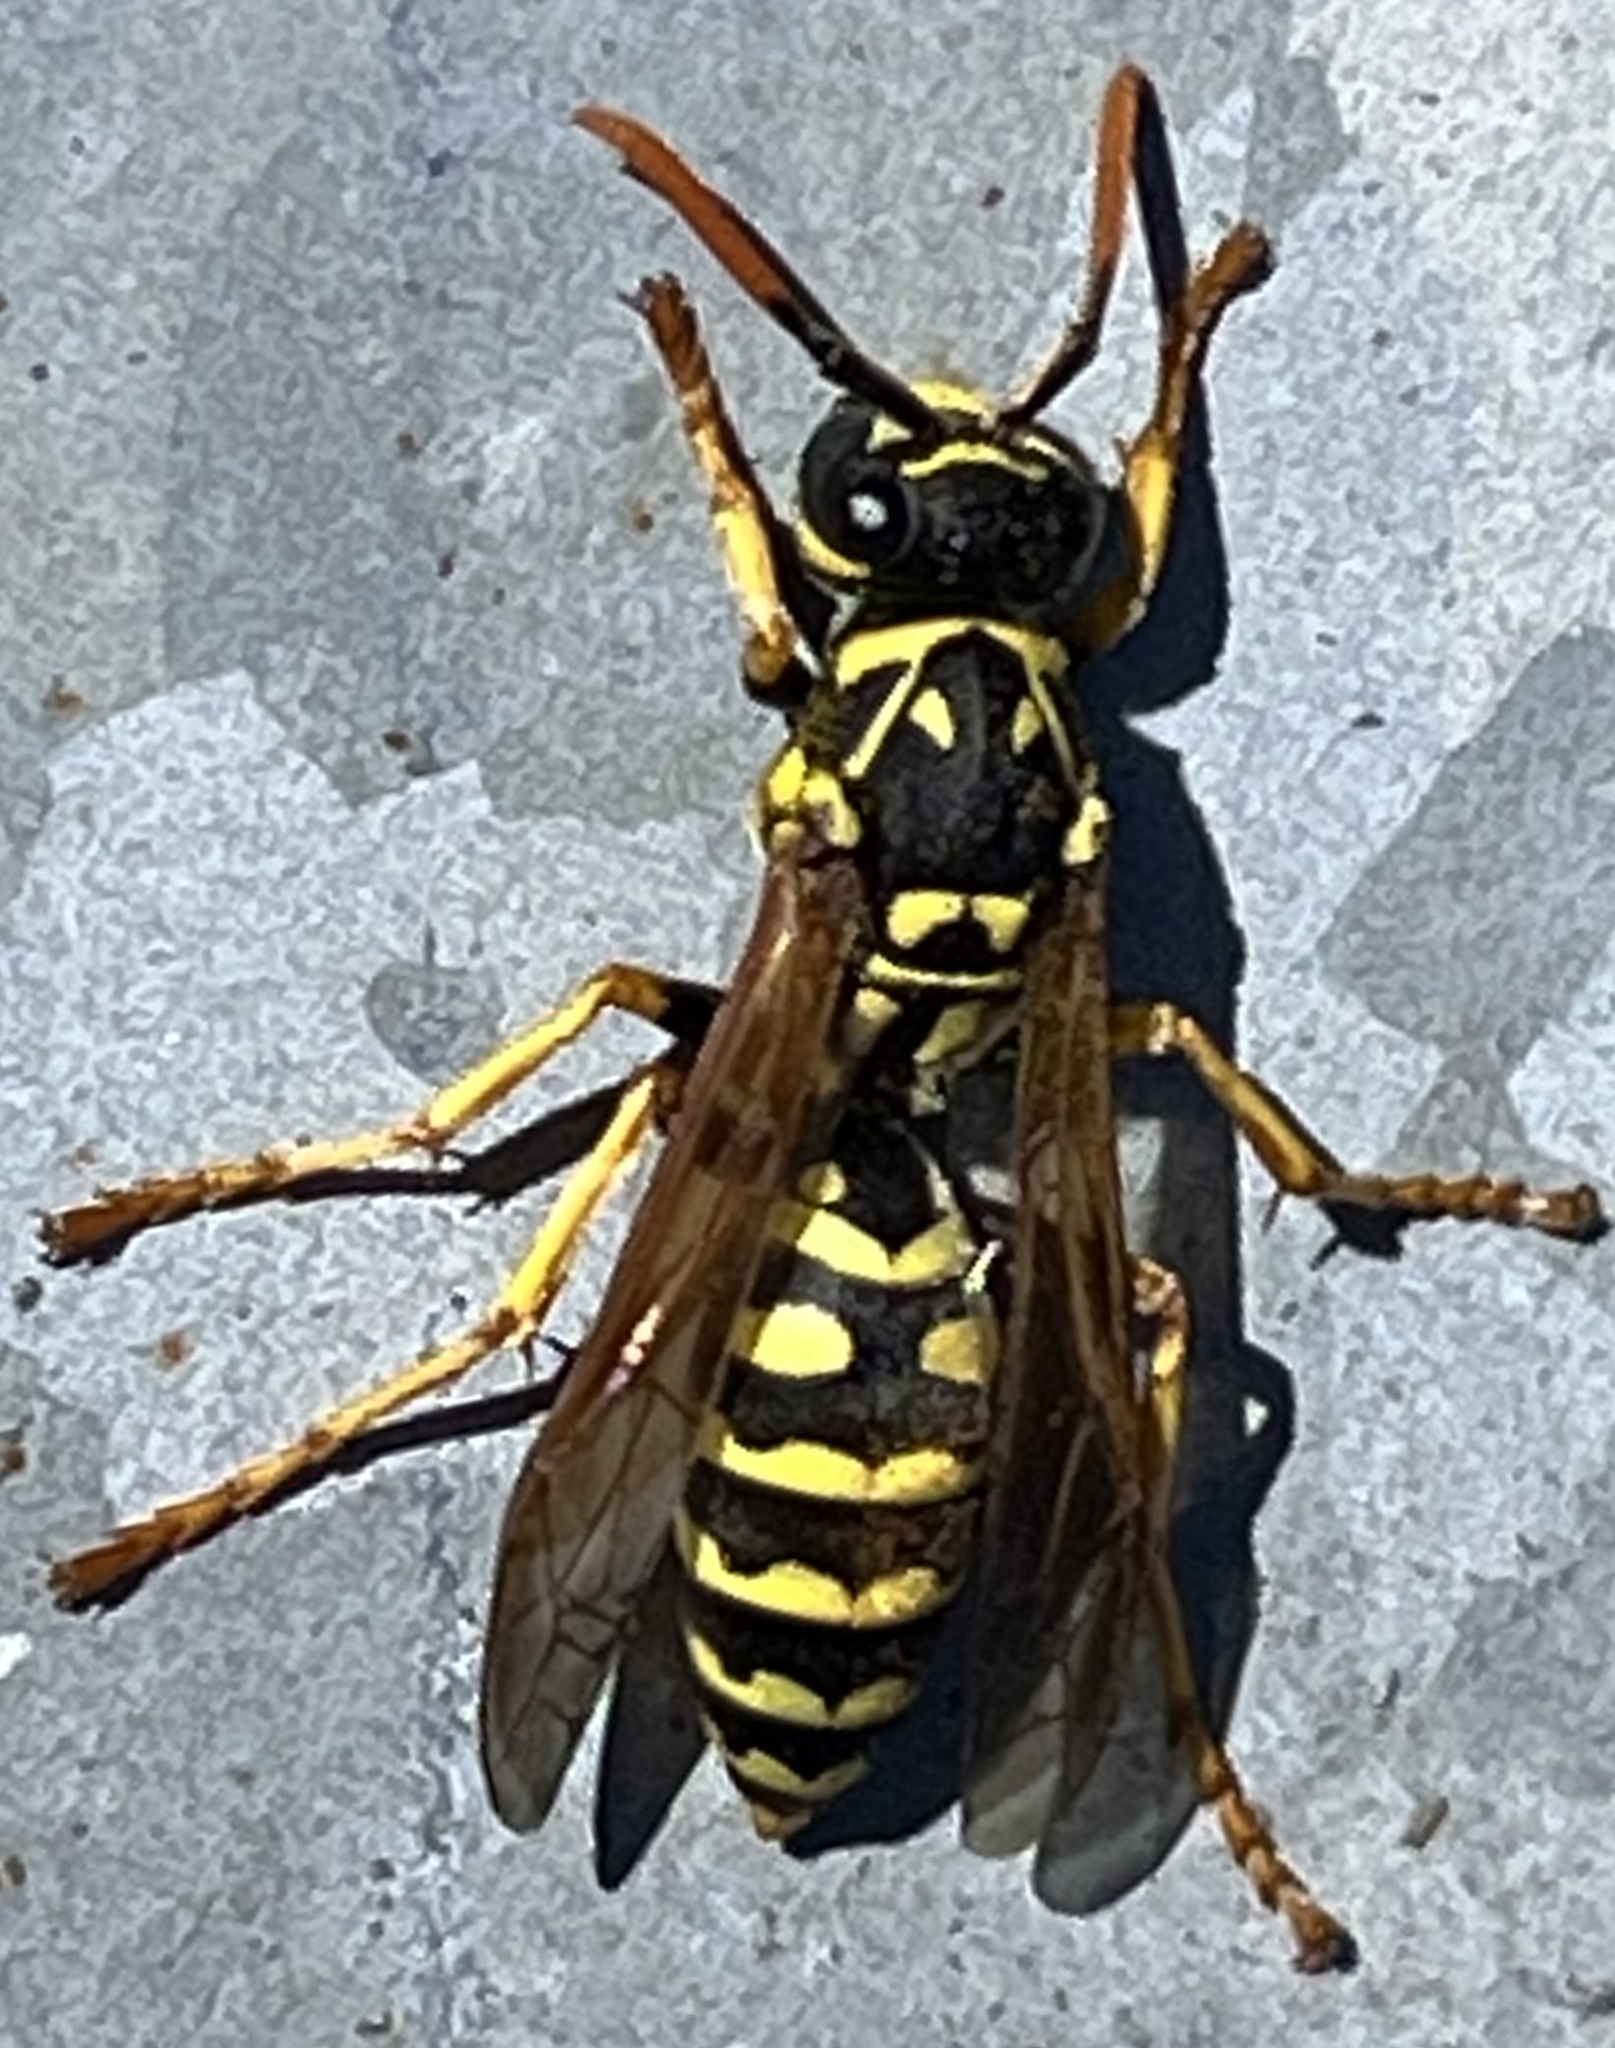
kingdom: Animalia
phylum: Arthropoda
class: Insecta
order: Hymenoptera
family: Eumenidae
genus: Polistes
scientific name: Polistes dominula
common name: Paper wasp
